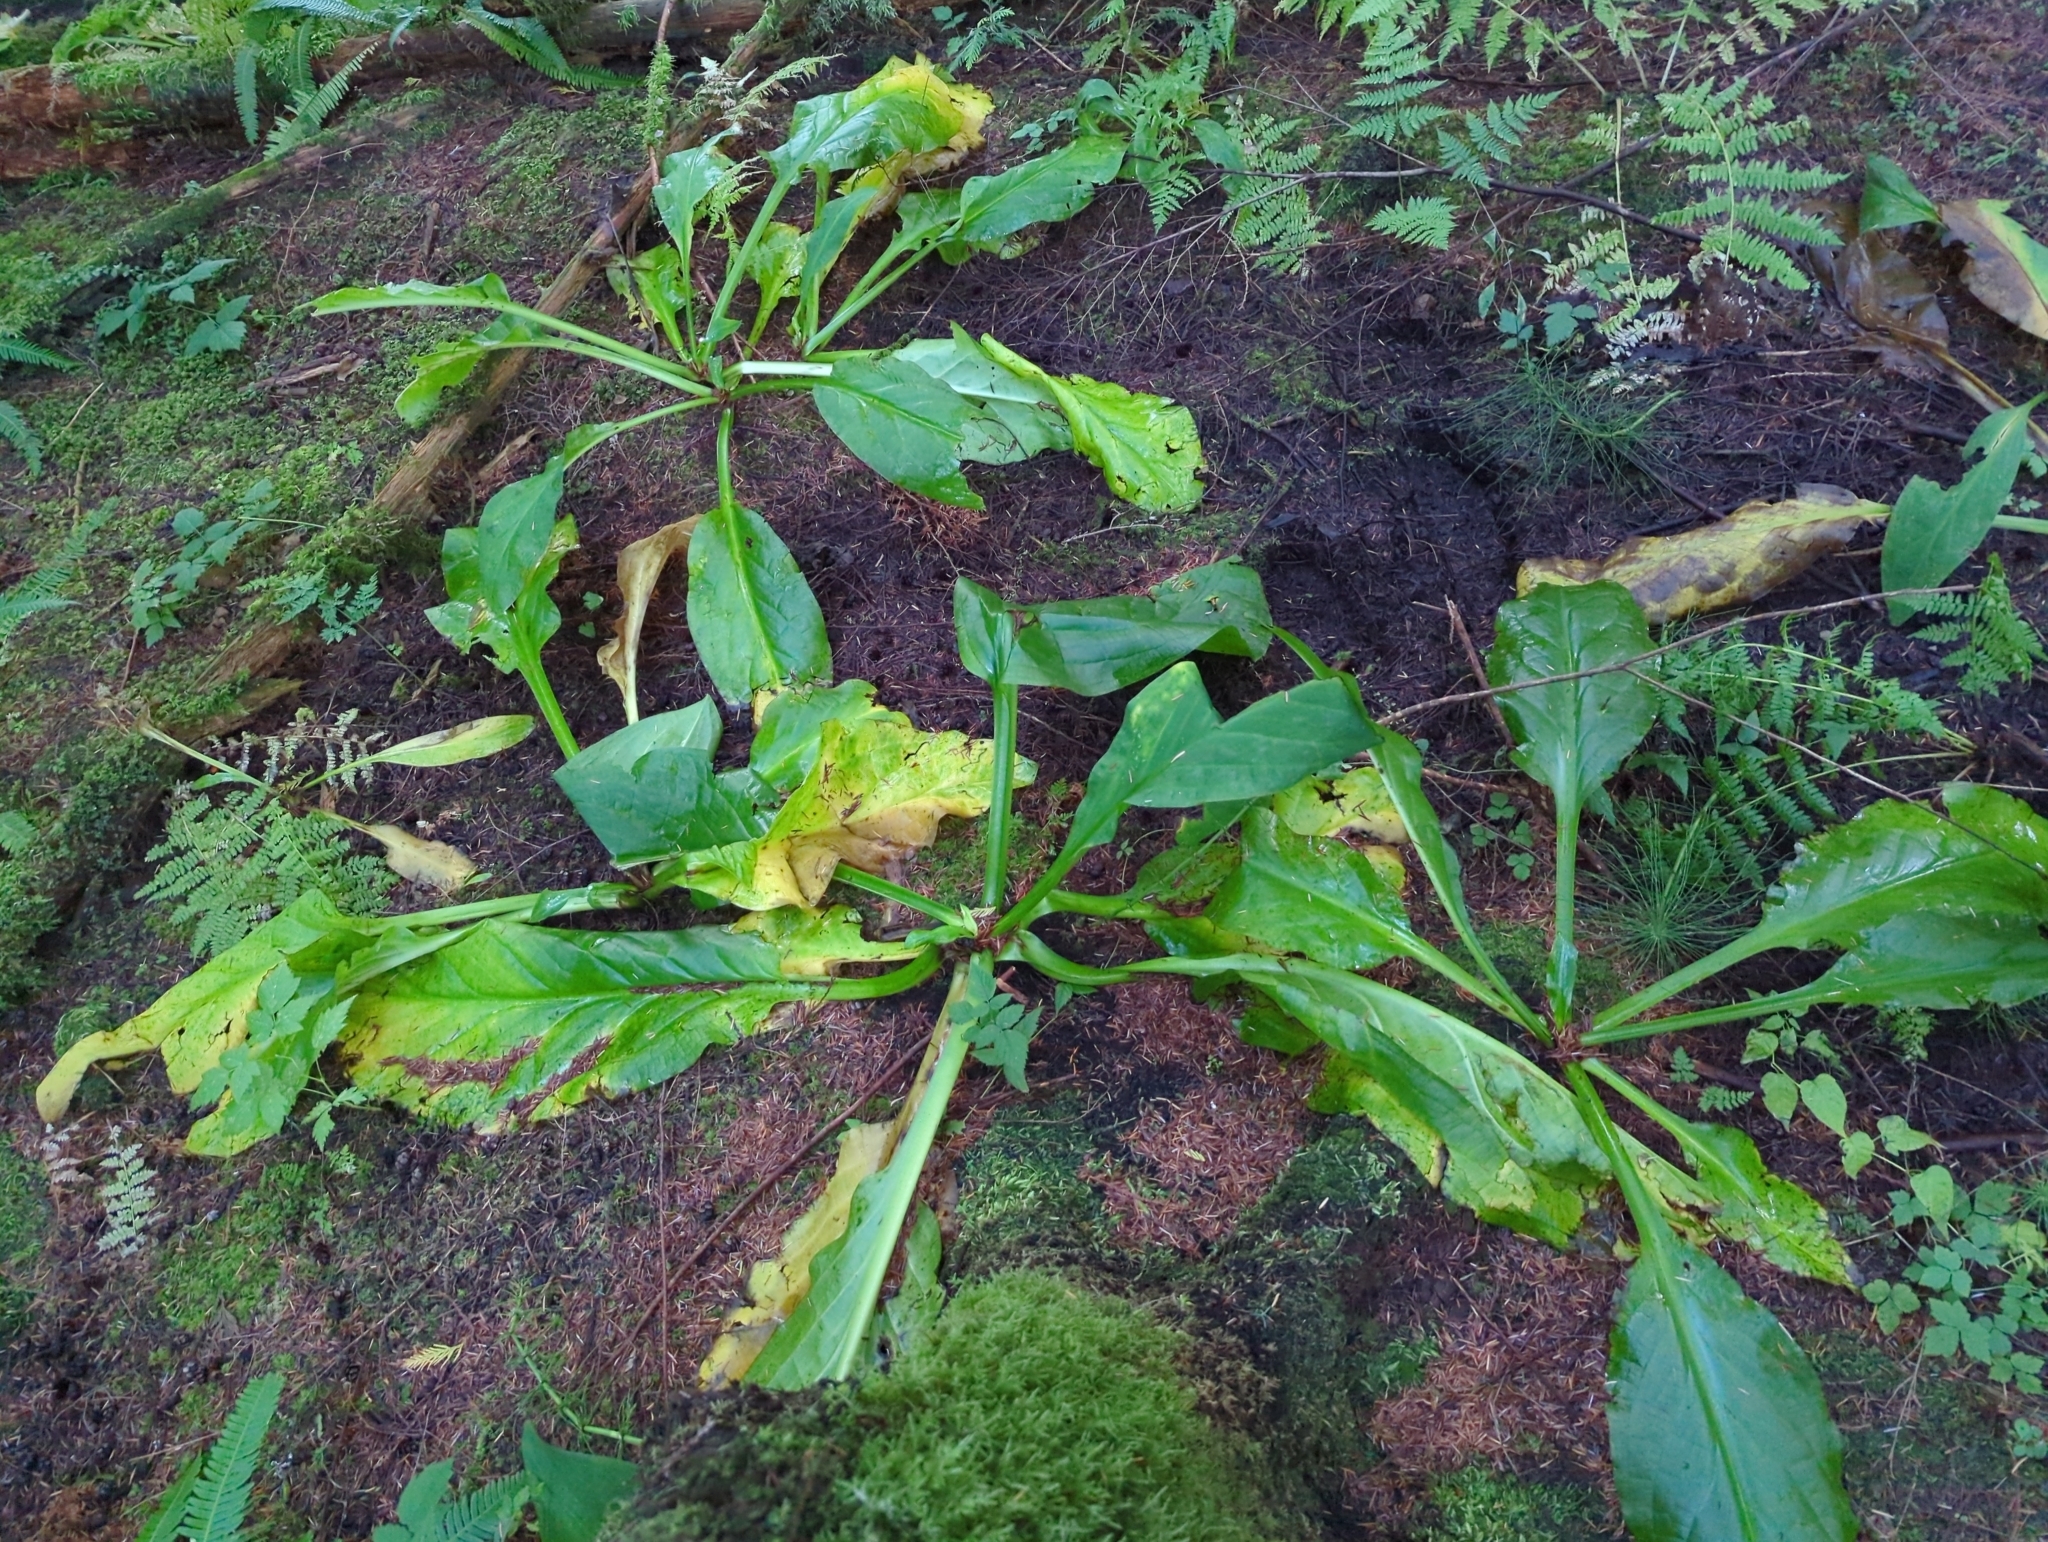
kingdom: Plantae
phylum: Tracheophyta
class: Liliopsida
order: Alismatales
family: Araceae
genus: Lysichiton
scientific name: Lysichiton americanus
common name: American skunk cabbage
